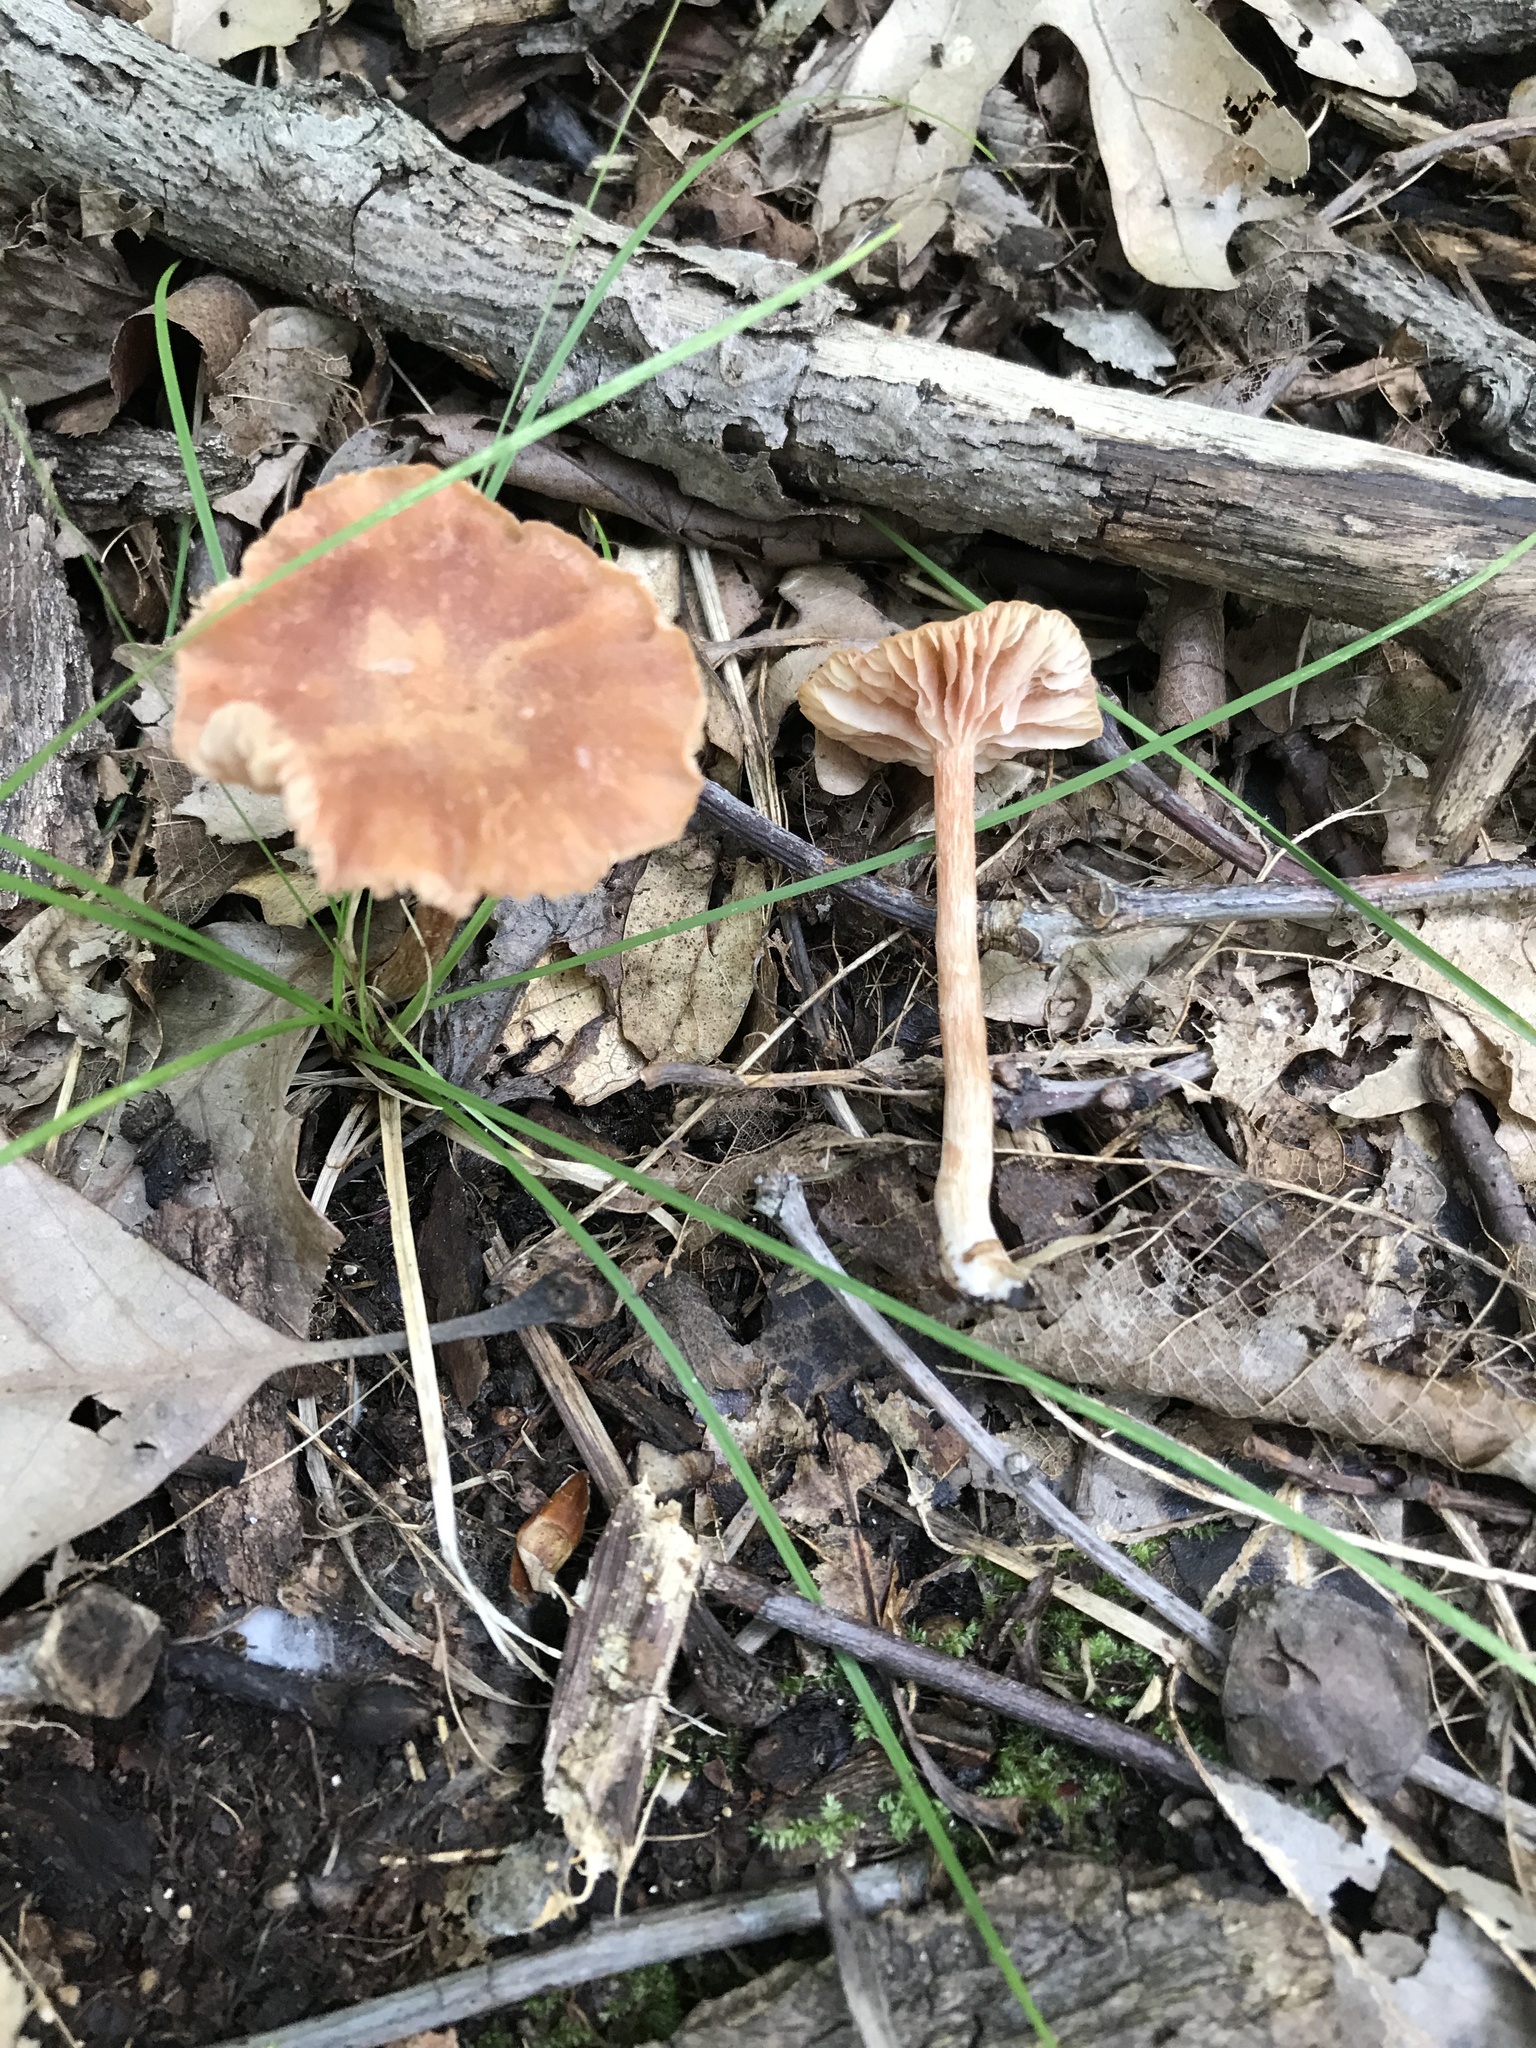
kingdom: Fungi
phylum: Basidiomycota
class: Agaricomycetes
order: Agaricales
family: Hydnangiaceae
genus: Laccaria
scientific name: Laccaria laccata
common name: Deceiver
